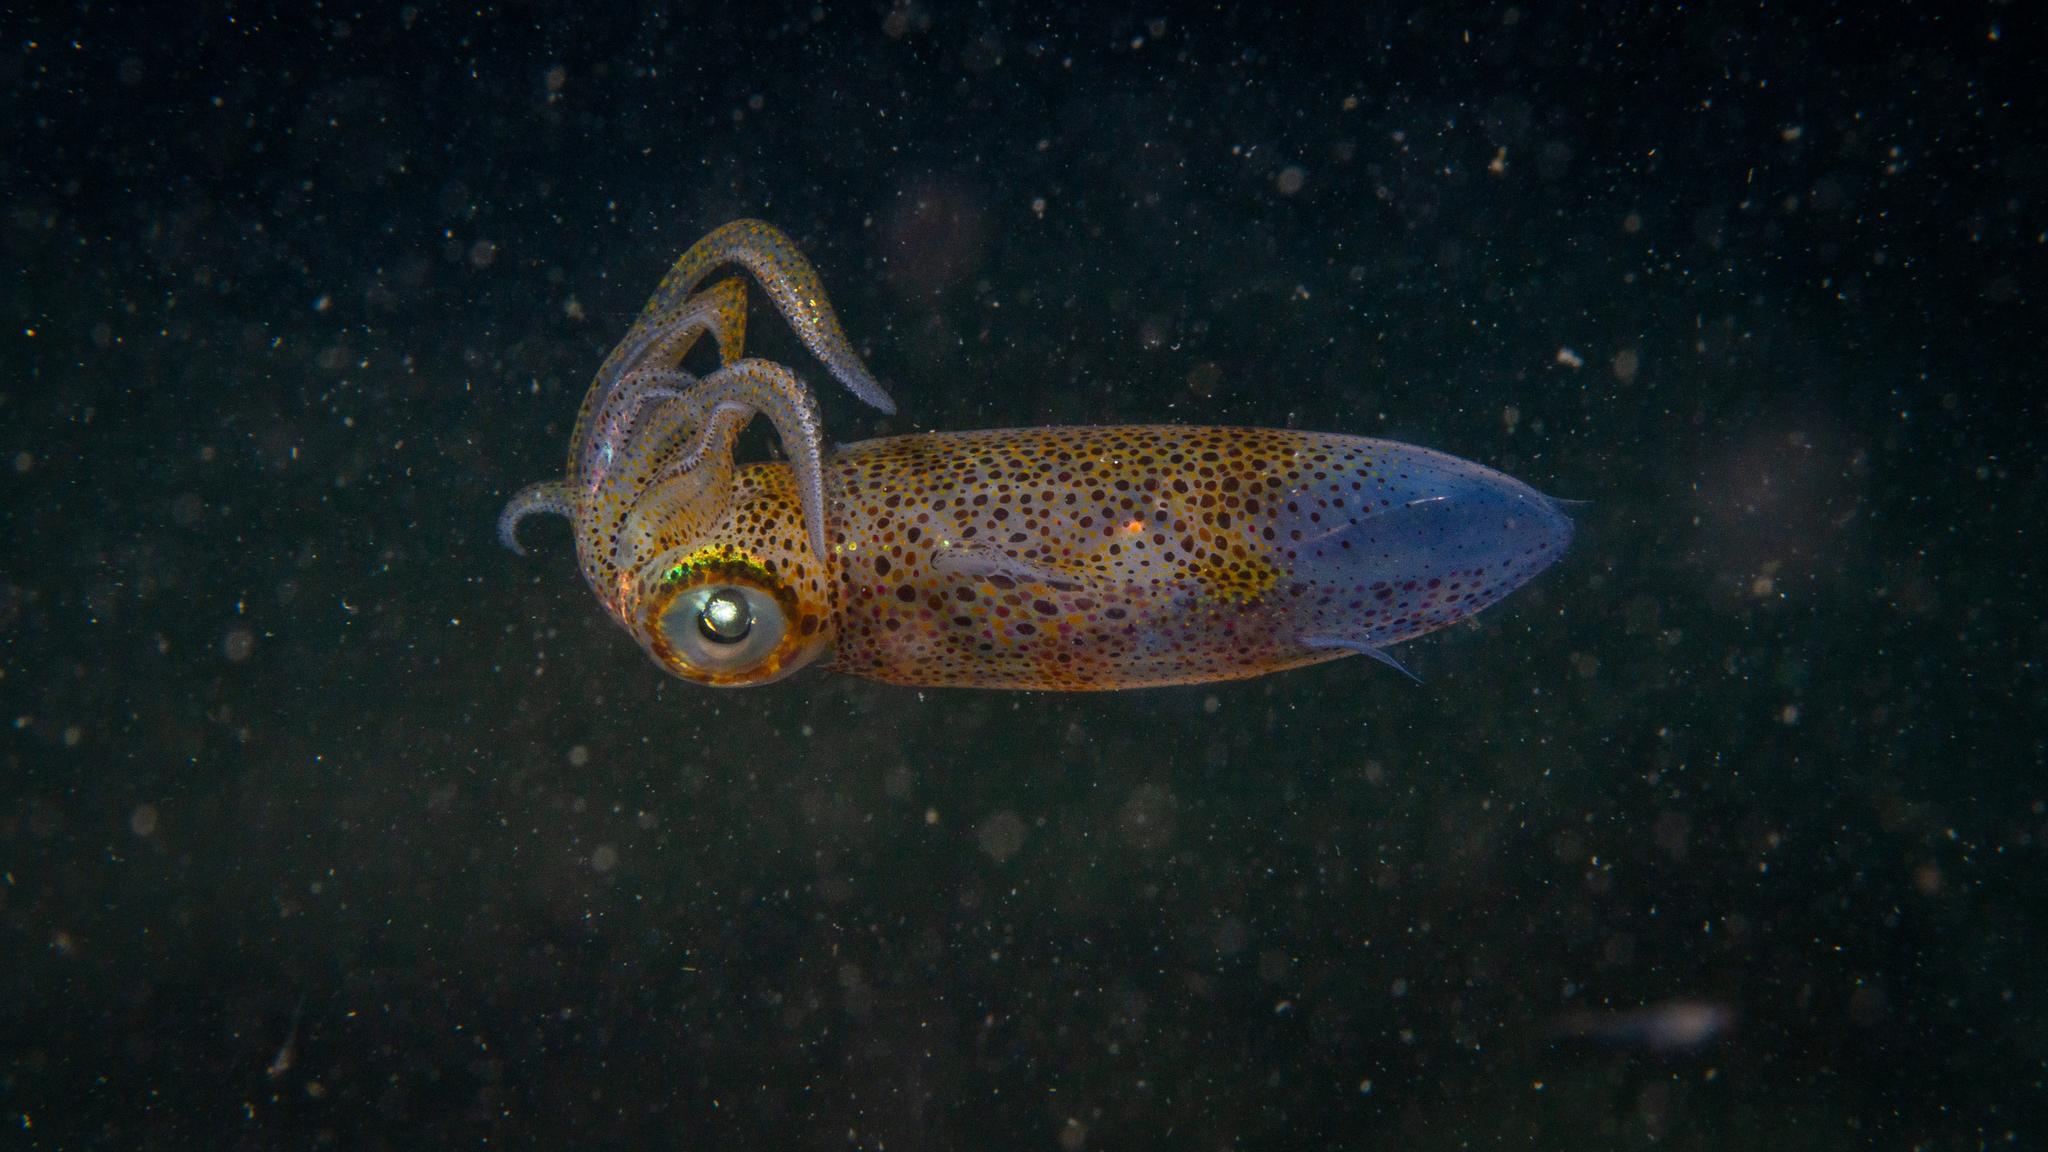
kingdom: Animalia
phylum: Mollusca
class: Cephalopoda
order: Myopsida
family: Loliginidae
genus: Sepioteuthis
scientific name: Sepioteuthis australis
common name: Southern reef squid
